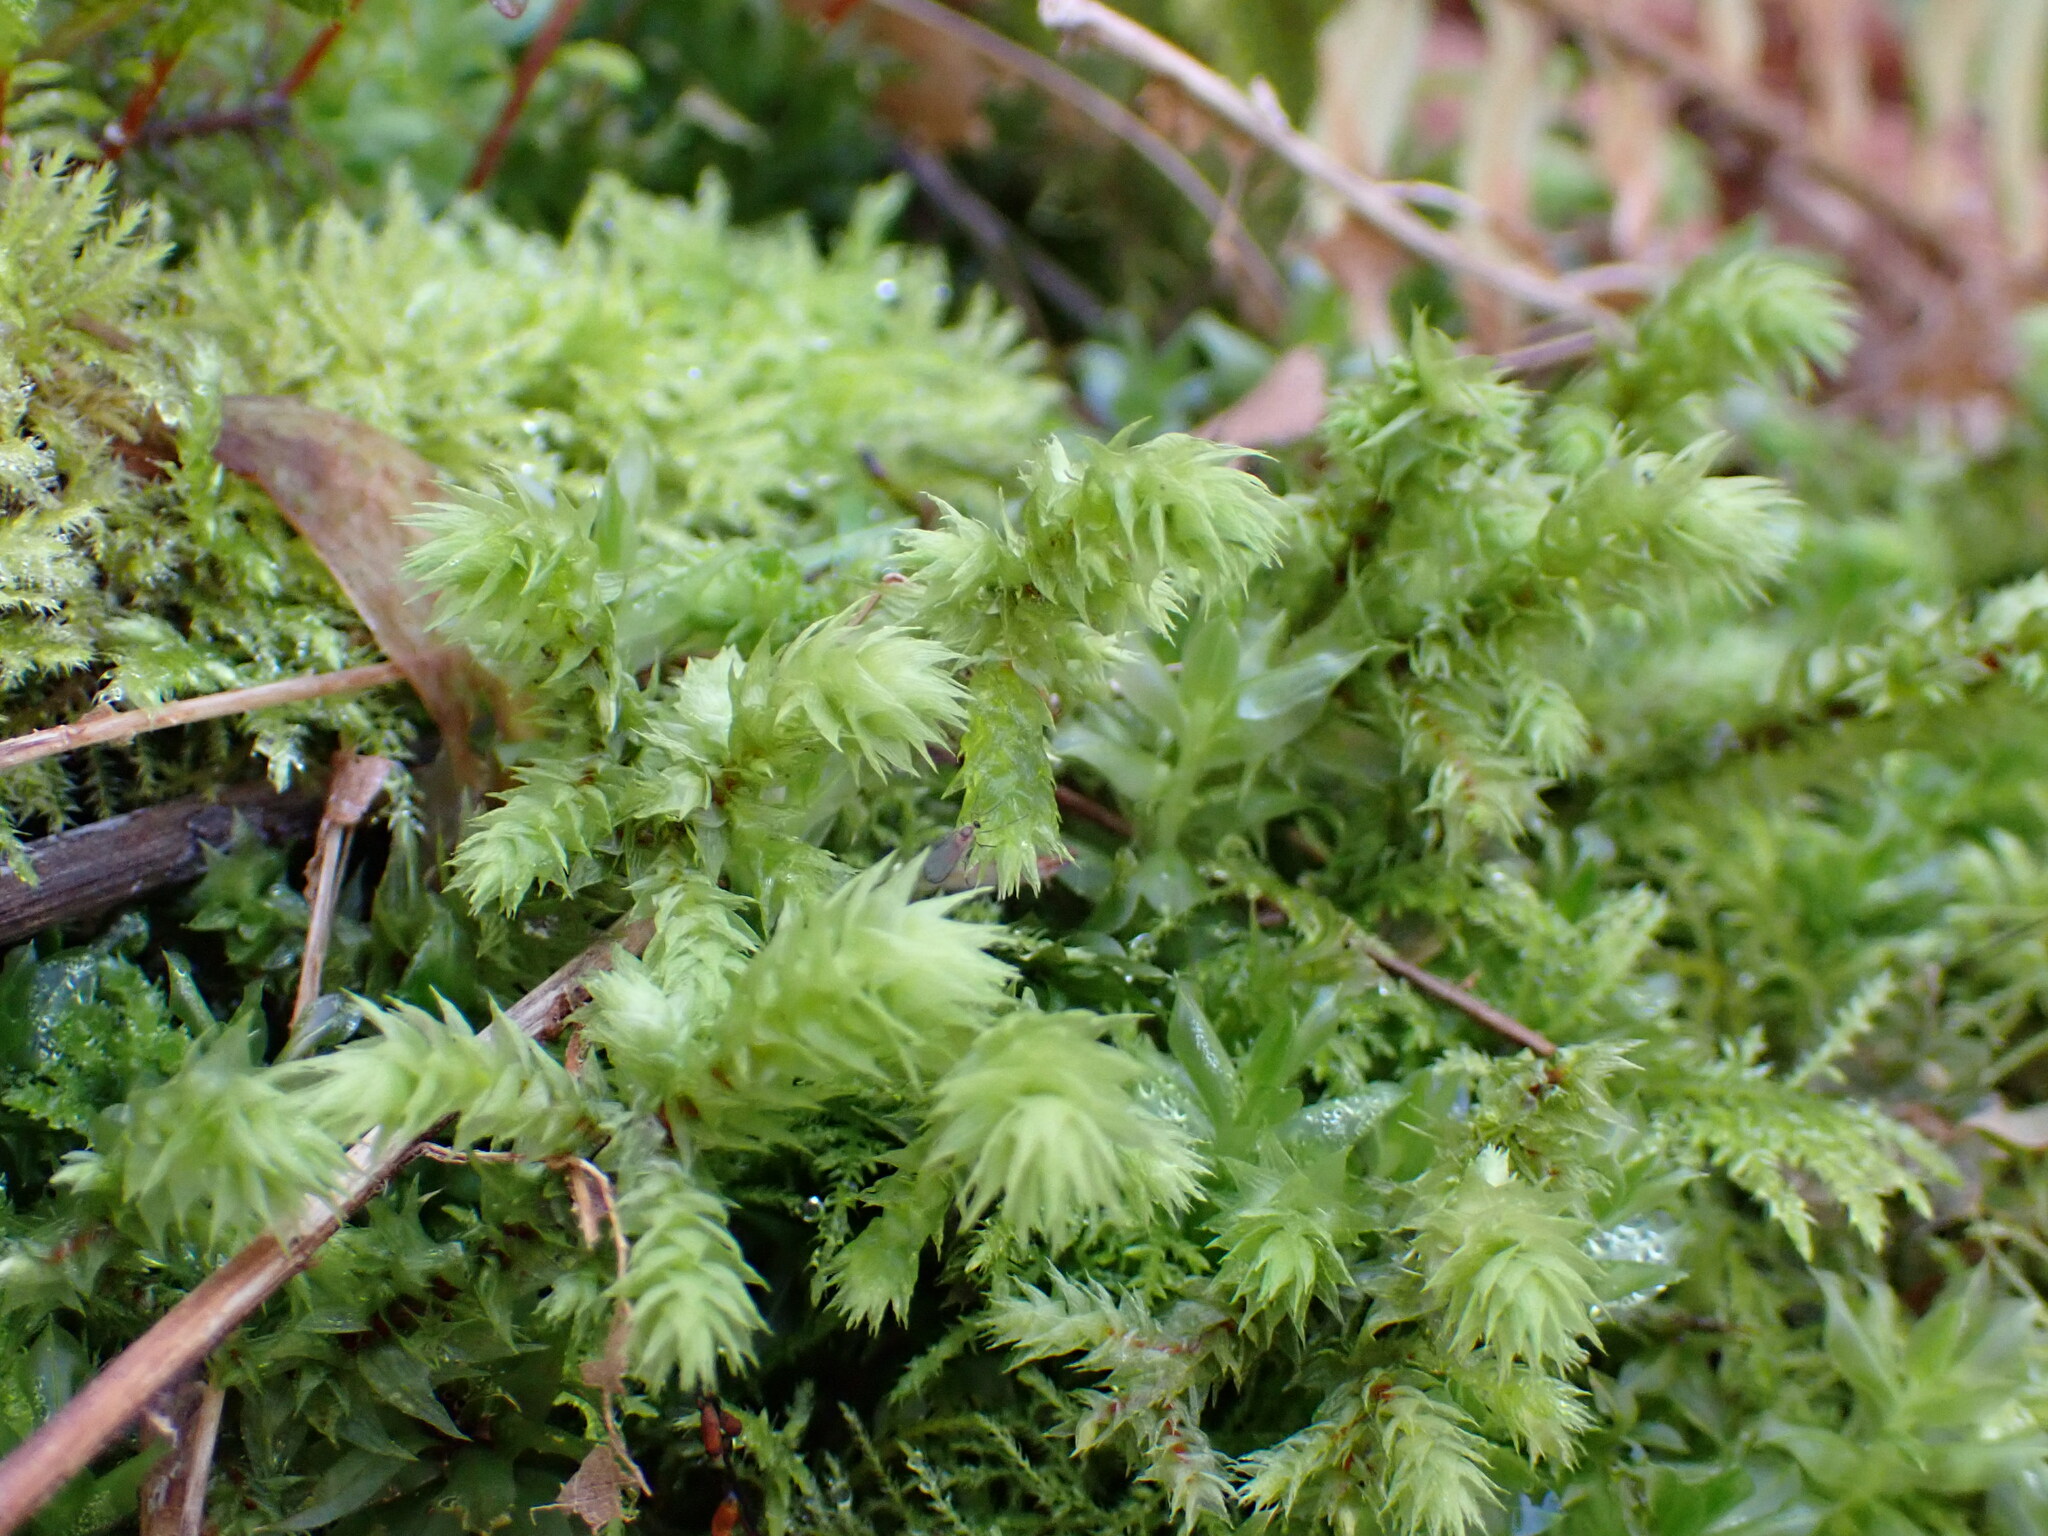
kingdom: Plantae
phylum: Bryophyta
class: Bryopsida
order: Hypnales
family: Hylocomiaceae
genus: Hylocomiadelphus
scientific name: Hylocomiadelphus triquetrus
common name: Rough goose neck moss
